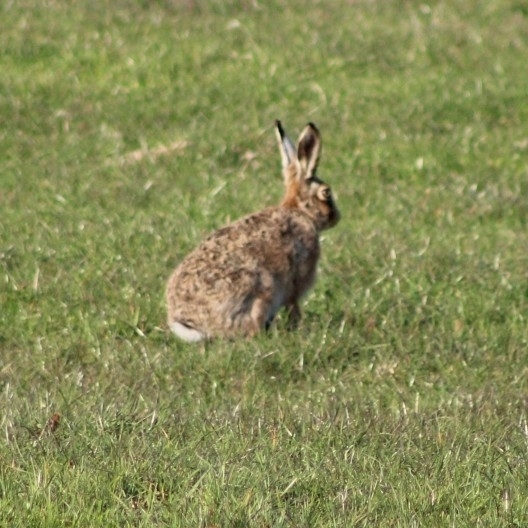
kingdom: Animalia
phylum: Chordata
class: Mammalia
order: Lagomorpha
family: Leporidae
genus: Lepus
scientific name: Lepus europaeus
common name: European hare
